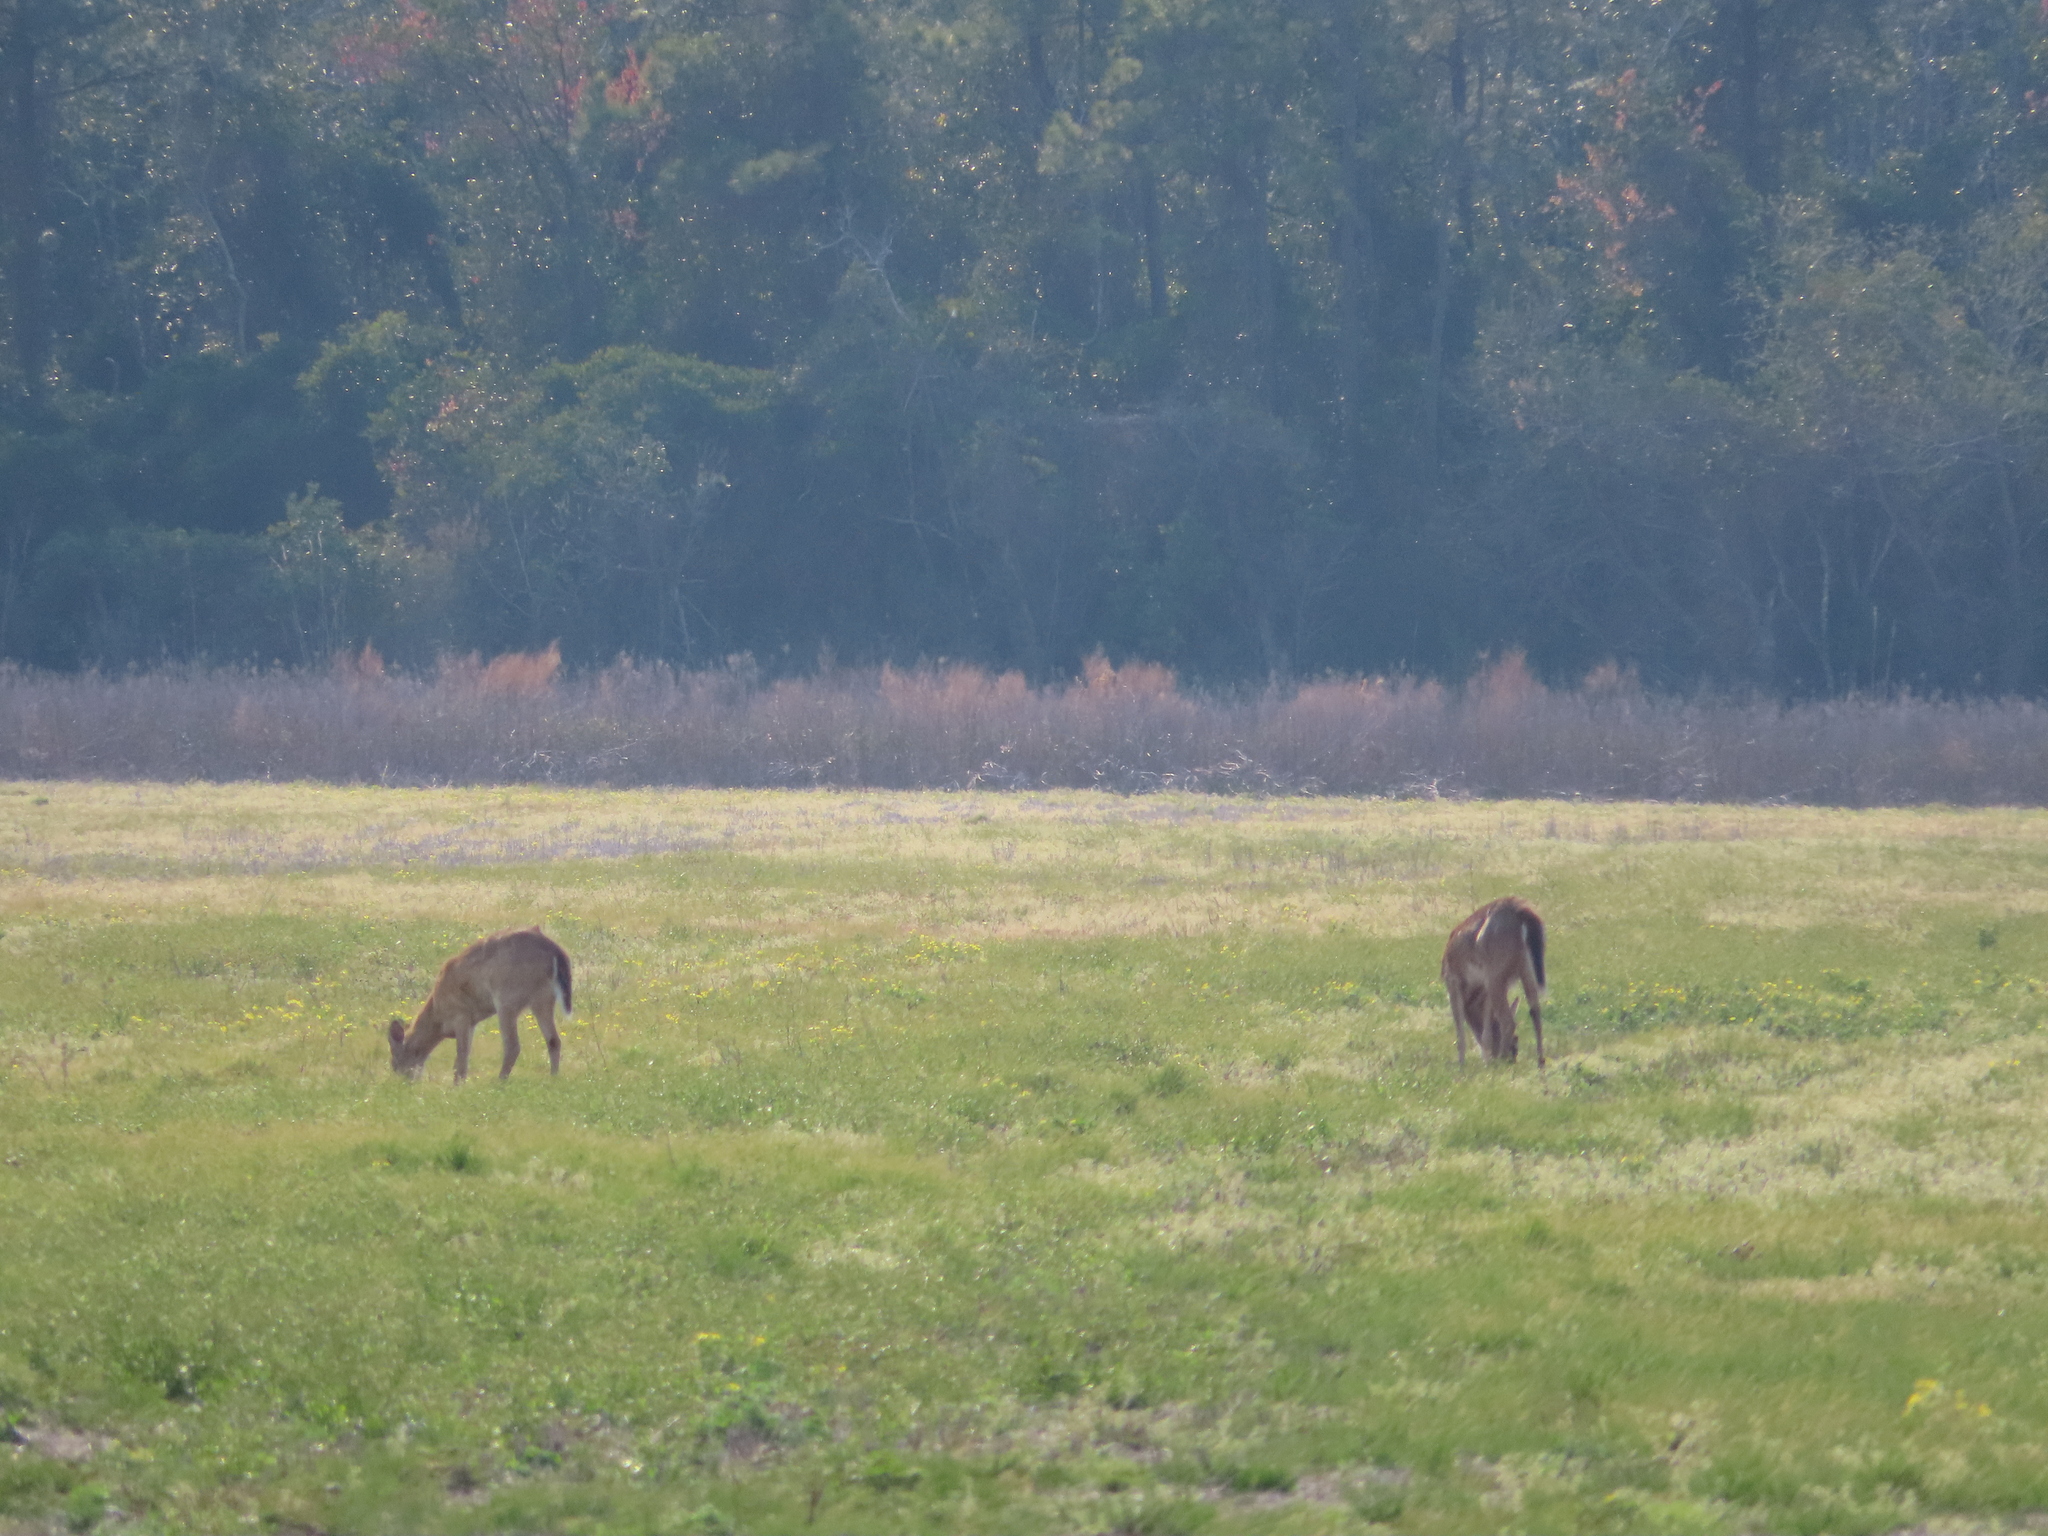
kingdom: Animalia
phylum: Chordata
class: Mammalia
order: Artiodactyla
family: Cervidae
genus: Odocoileus
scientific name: Odocoileus virginianus
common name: White-tailed deer
